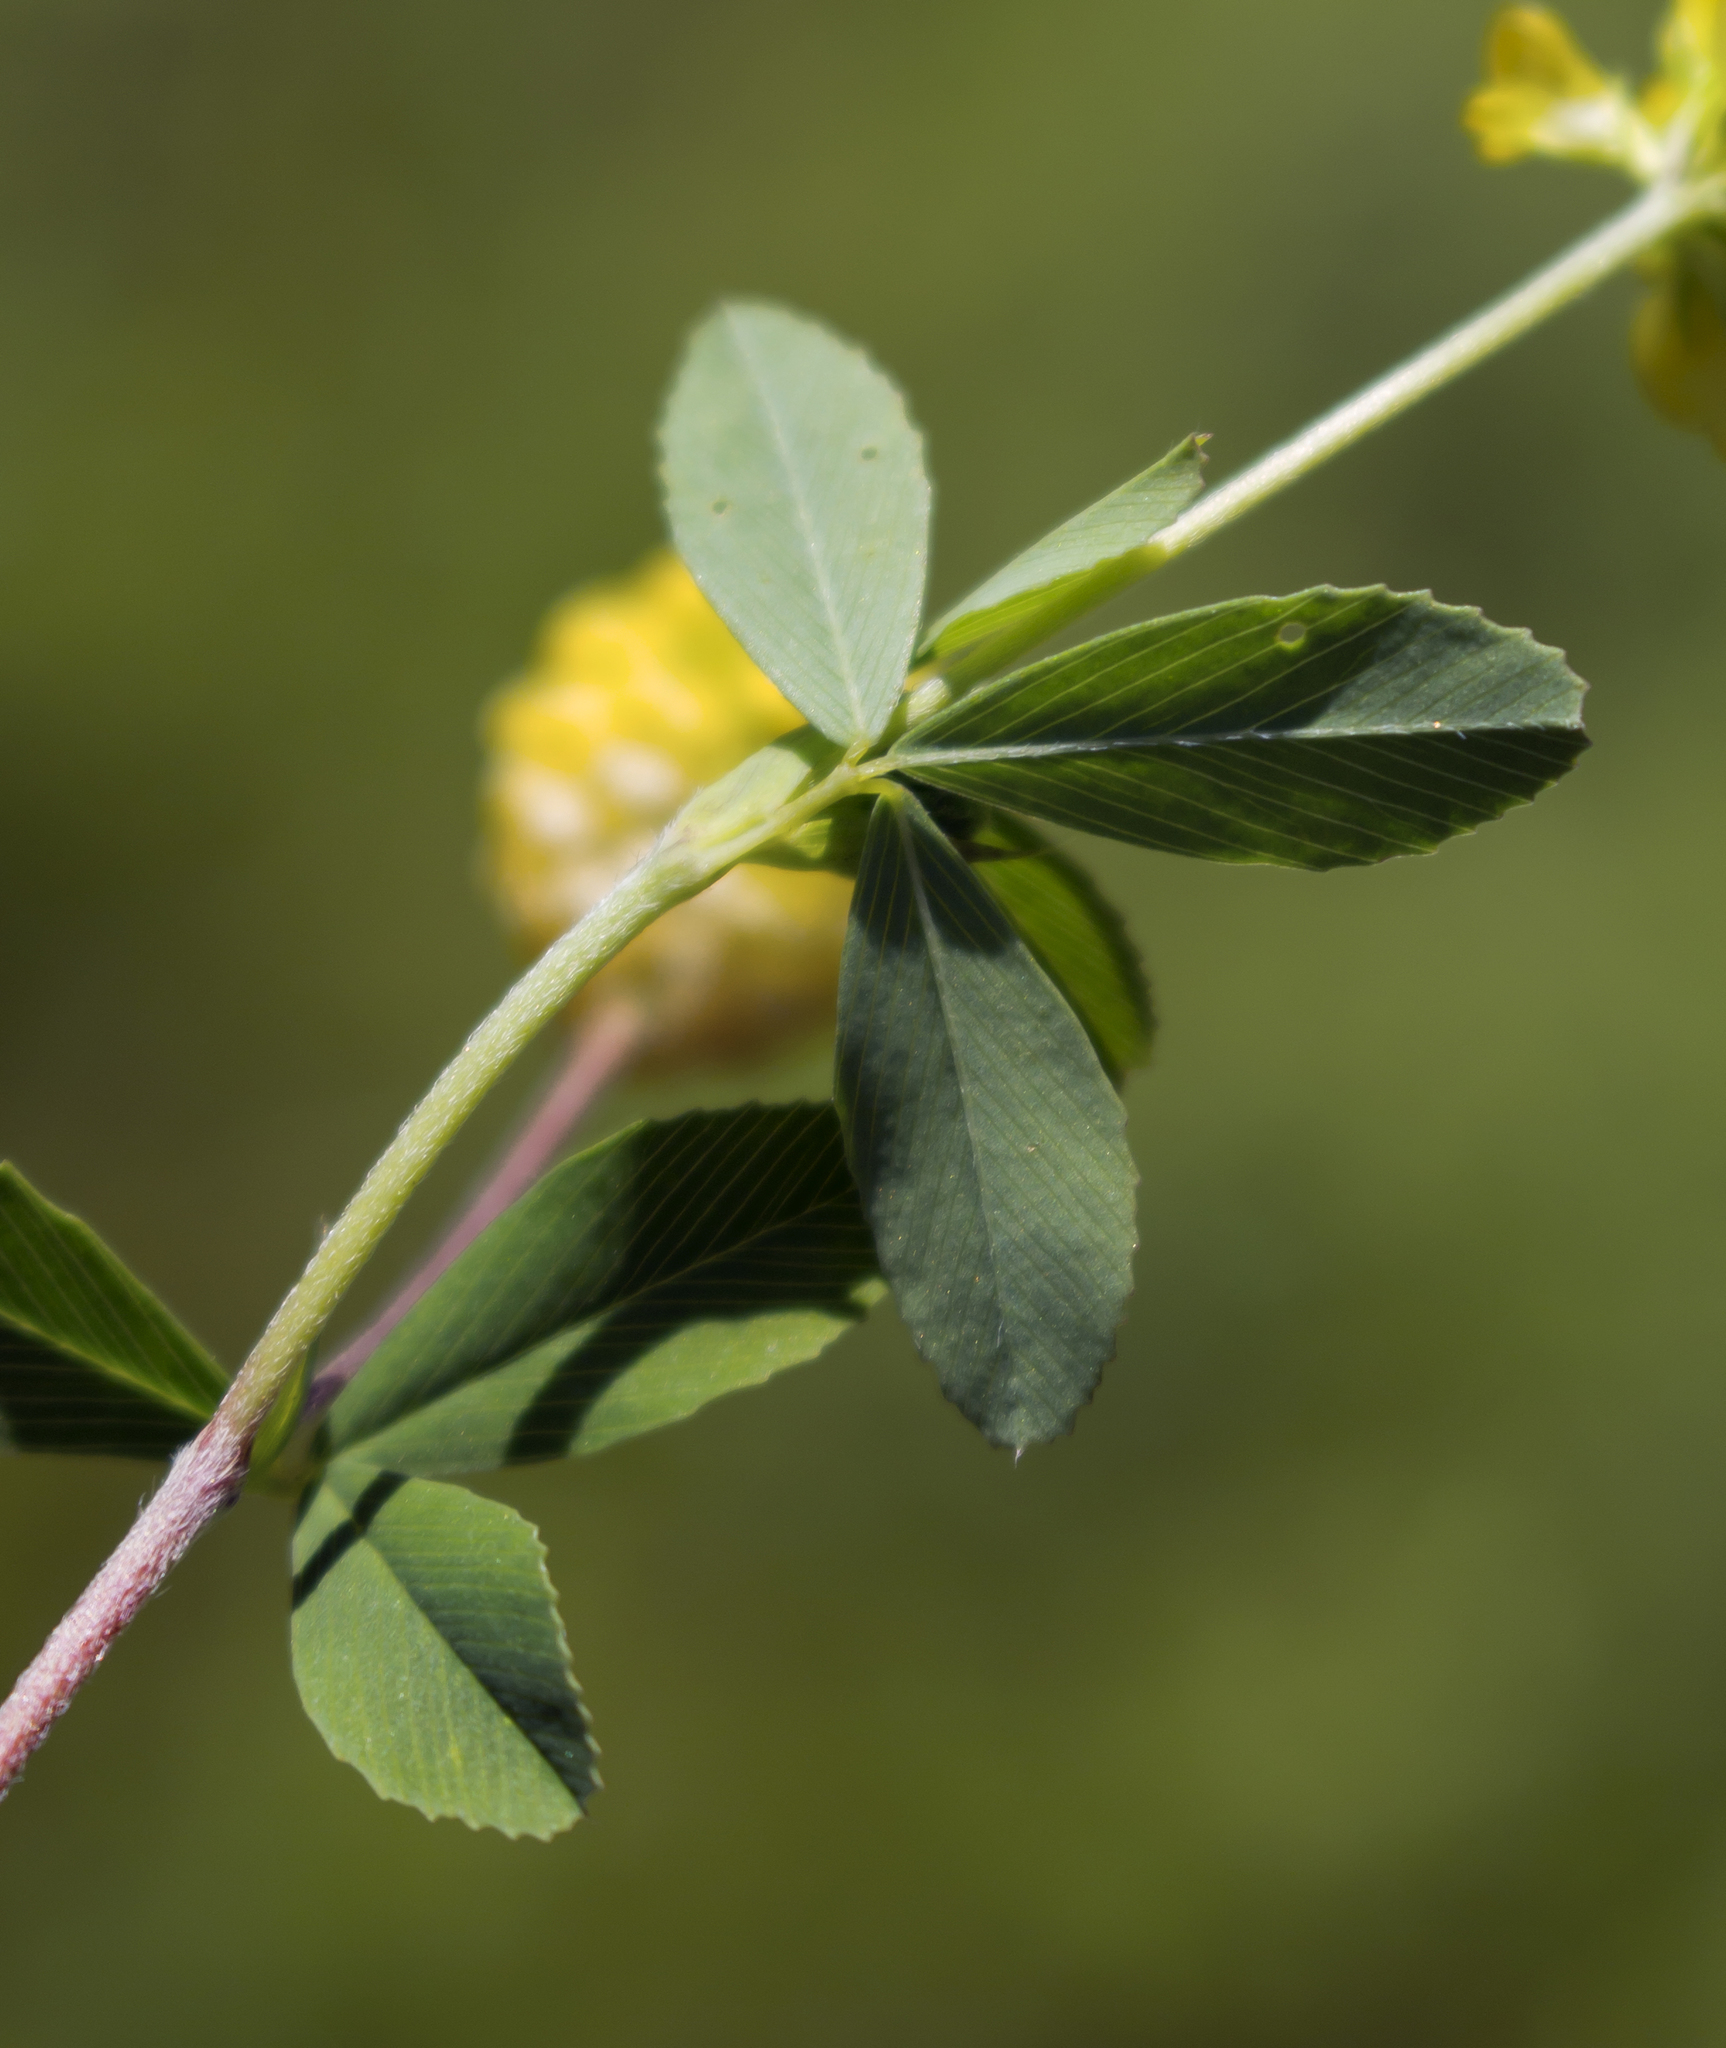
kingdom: Plantae
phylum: Tracheophyta
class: Magnoliopsida
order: Fabales
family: Fabaceae
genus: Trifolium
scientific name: Trifolium aureum
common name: Golden clover
